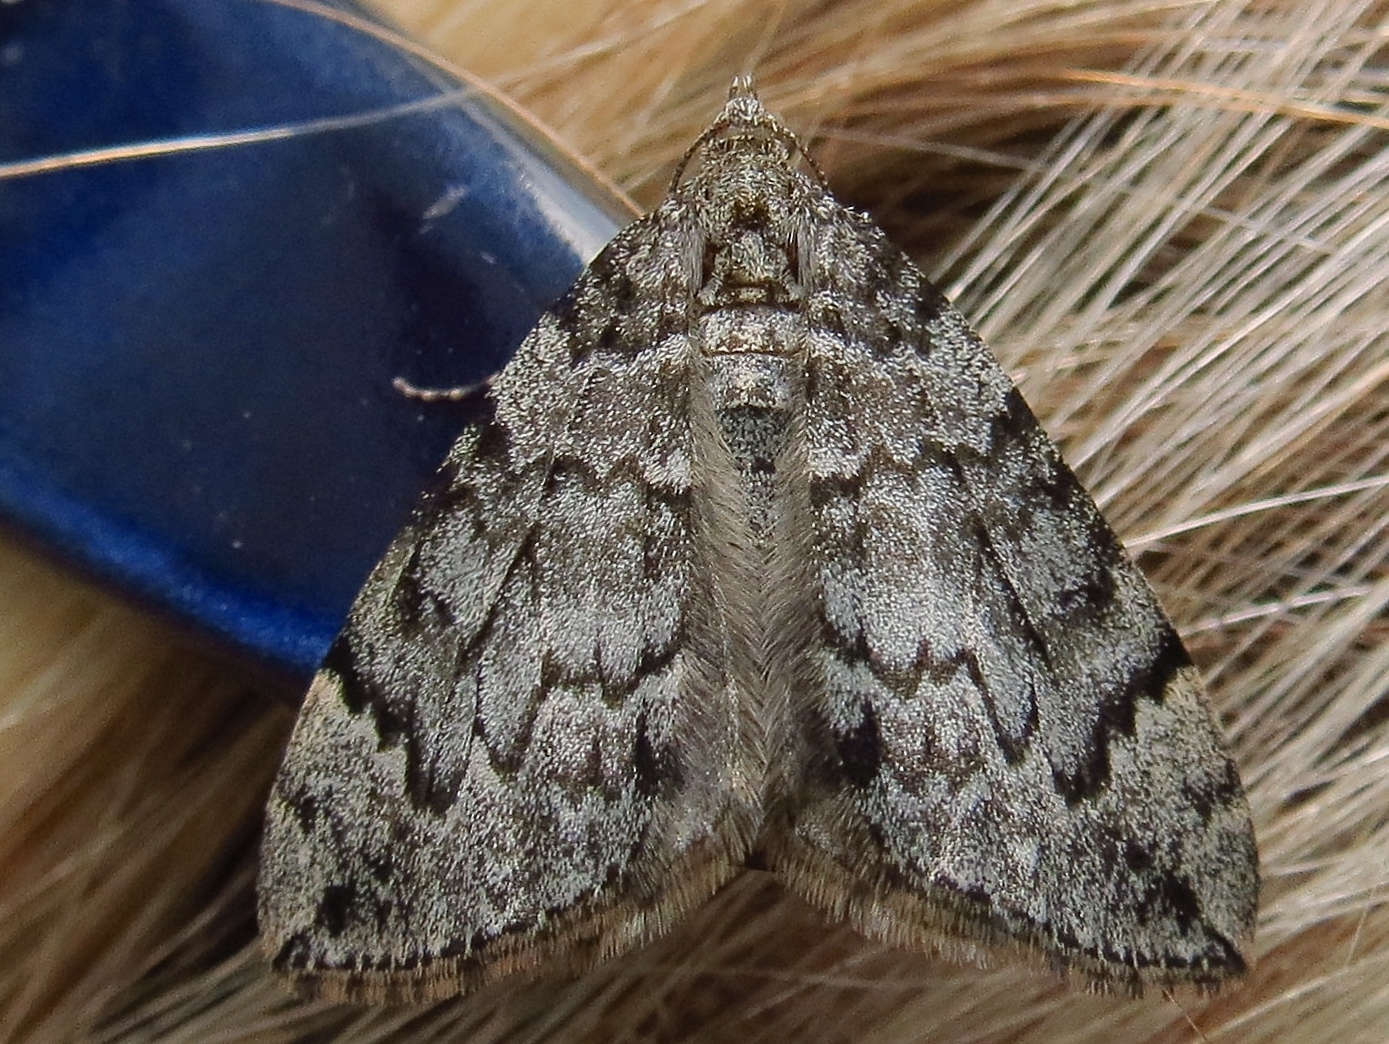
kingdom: Animalia
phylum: Arthropoda
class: Insecta
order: Lepidoptera
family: Geometridae
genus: Eulithis
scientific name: Eulithis destinata
